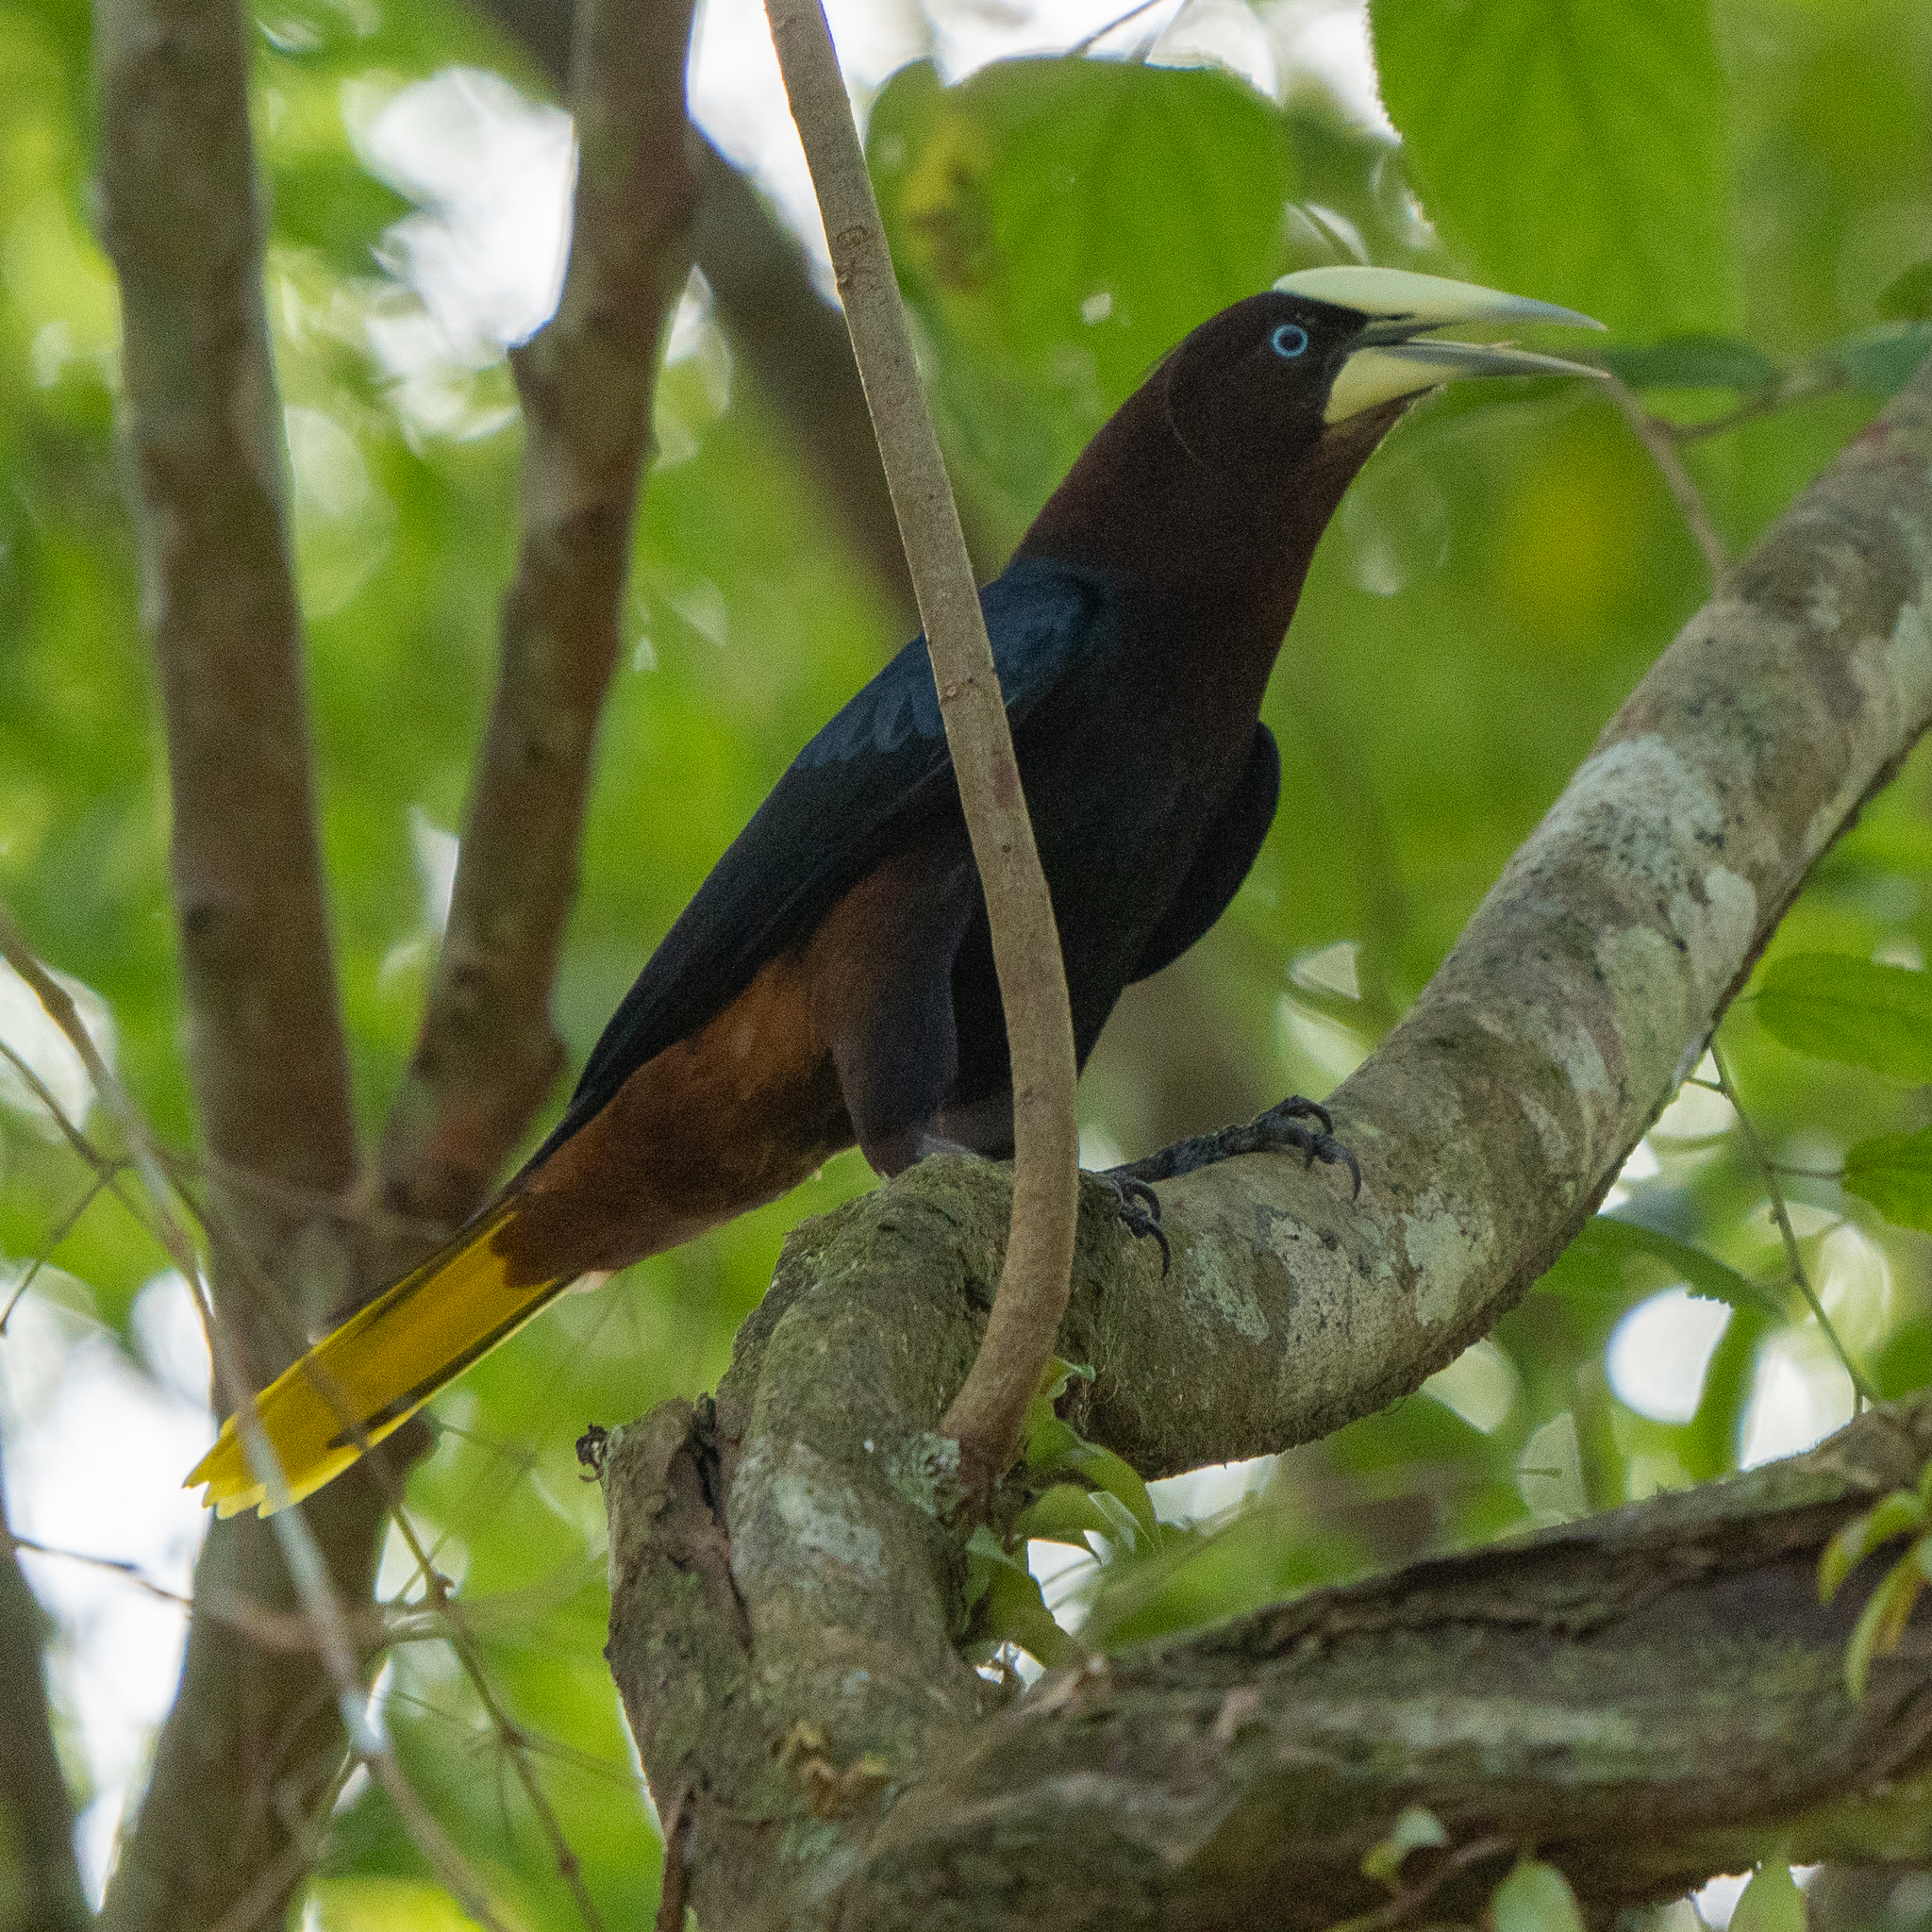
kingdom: Animalia
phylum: Chordata
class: Aves
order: Passeriformes
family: Icteridae
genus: Psarocolius
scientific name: Psarocolius wagleri
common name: Chestnut-headed oropendola
